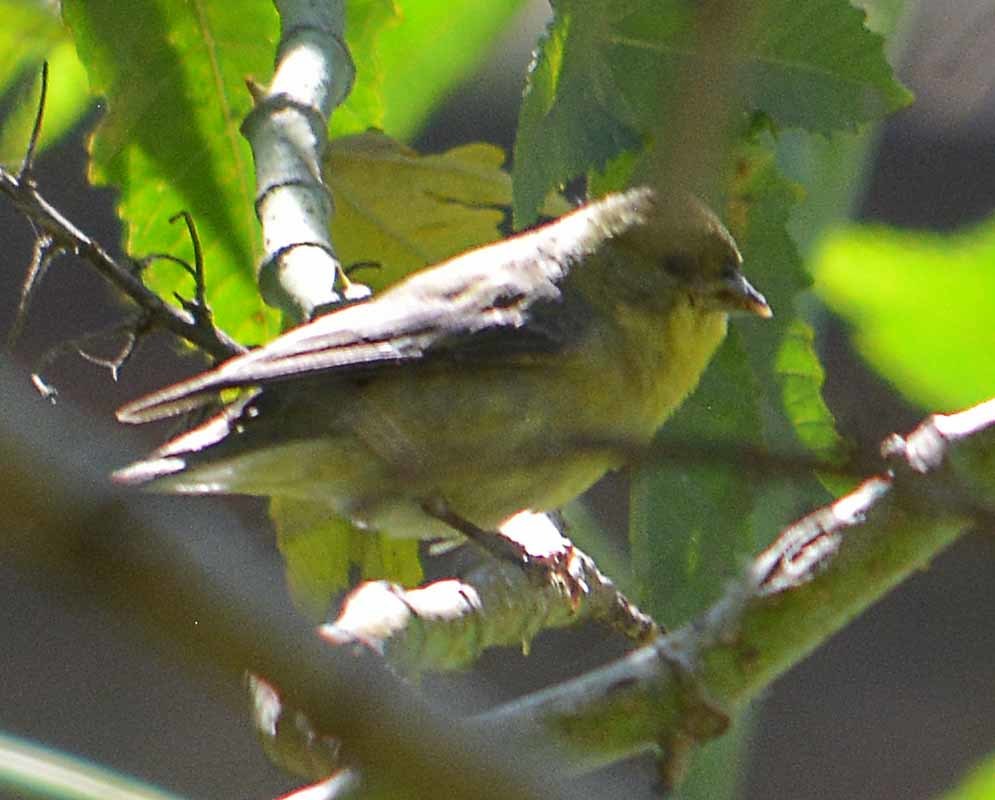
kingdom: Animalia
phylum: Chordata
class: Aves
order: Passeriformes
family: Fringillidae
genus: Spinus
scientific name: Spinus psaltria
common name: Lesser goldfinch
